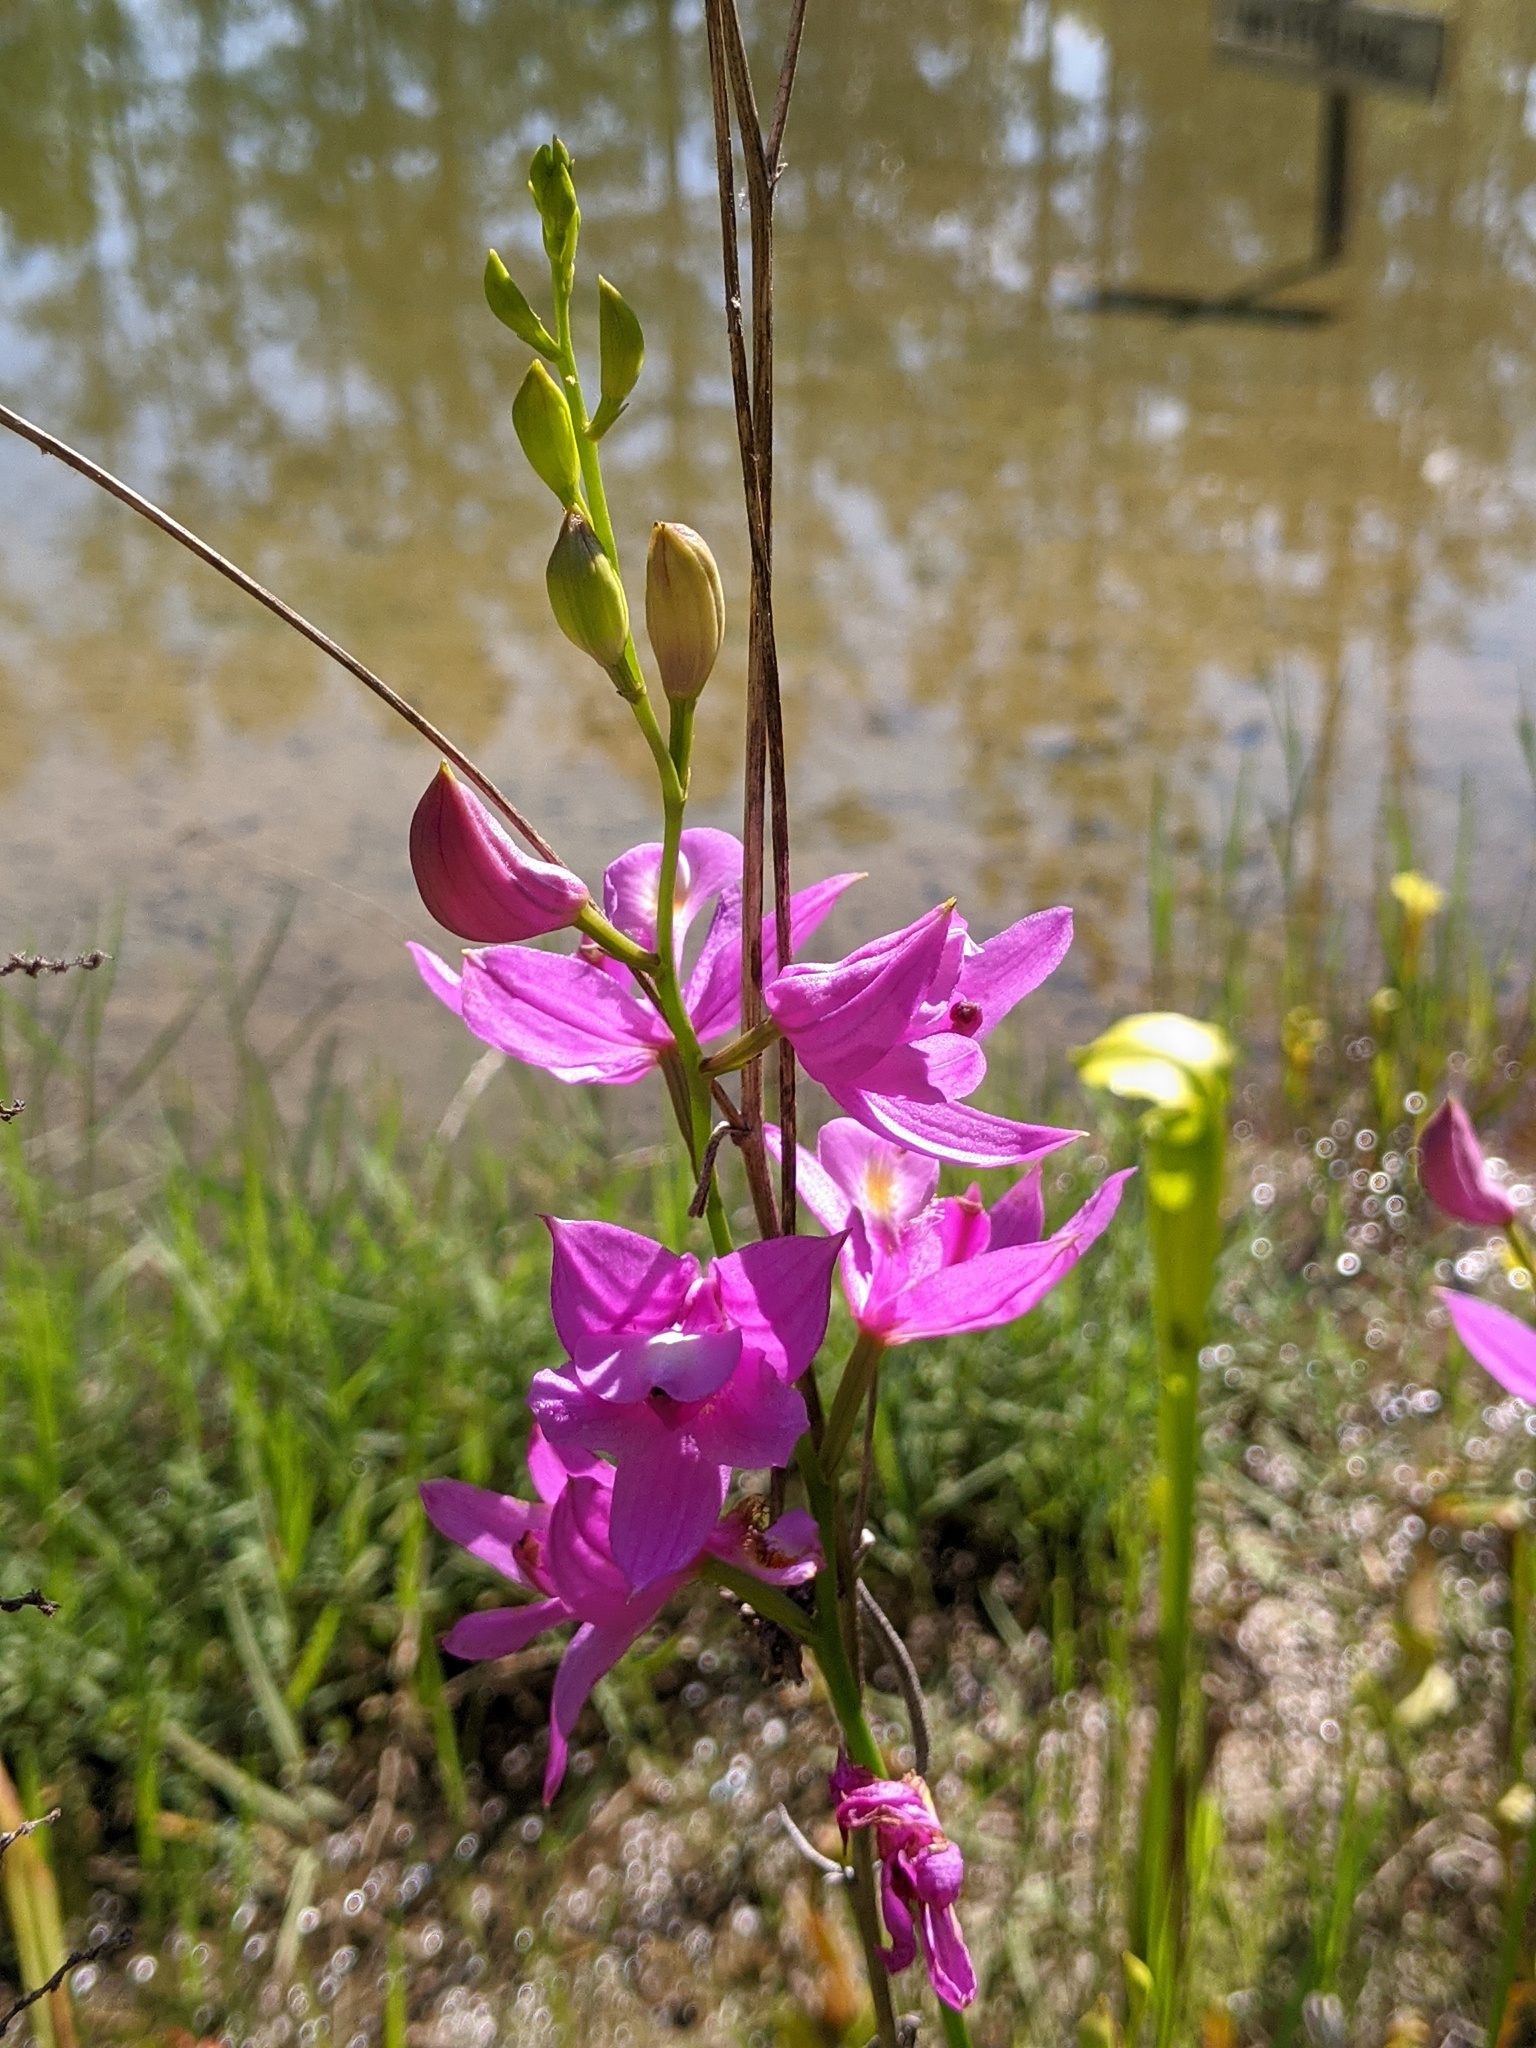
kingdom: Plantae
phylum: Tracheophyta
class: Liliopsida
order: Asparagales
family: Orchidaceae
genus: Calopogon
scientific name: Calopogon tuberosus
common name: Grass-pink
